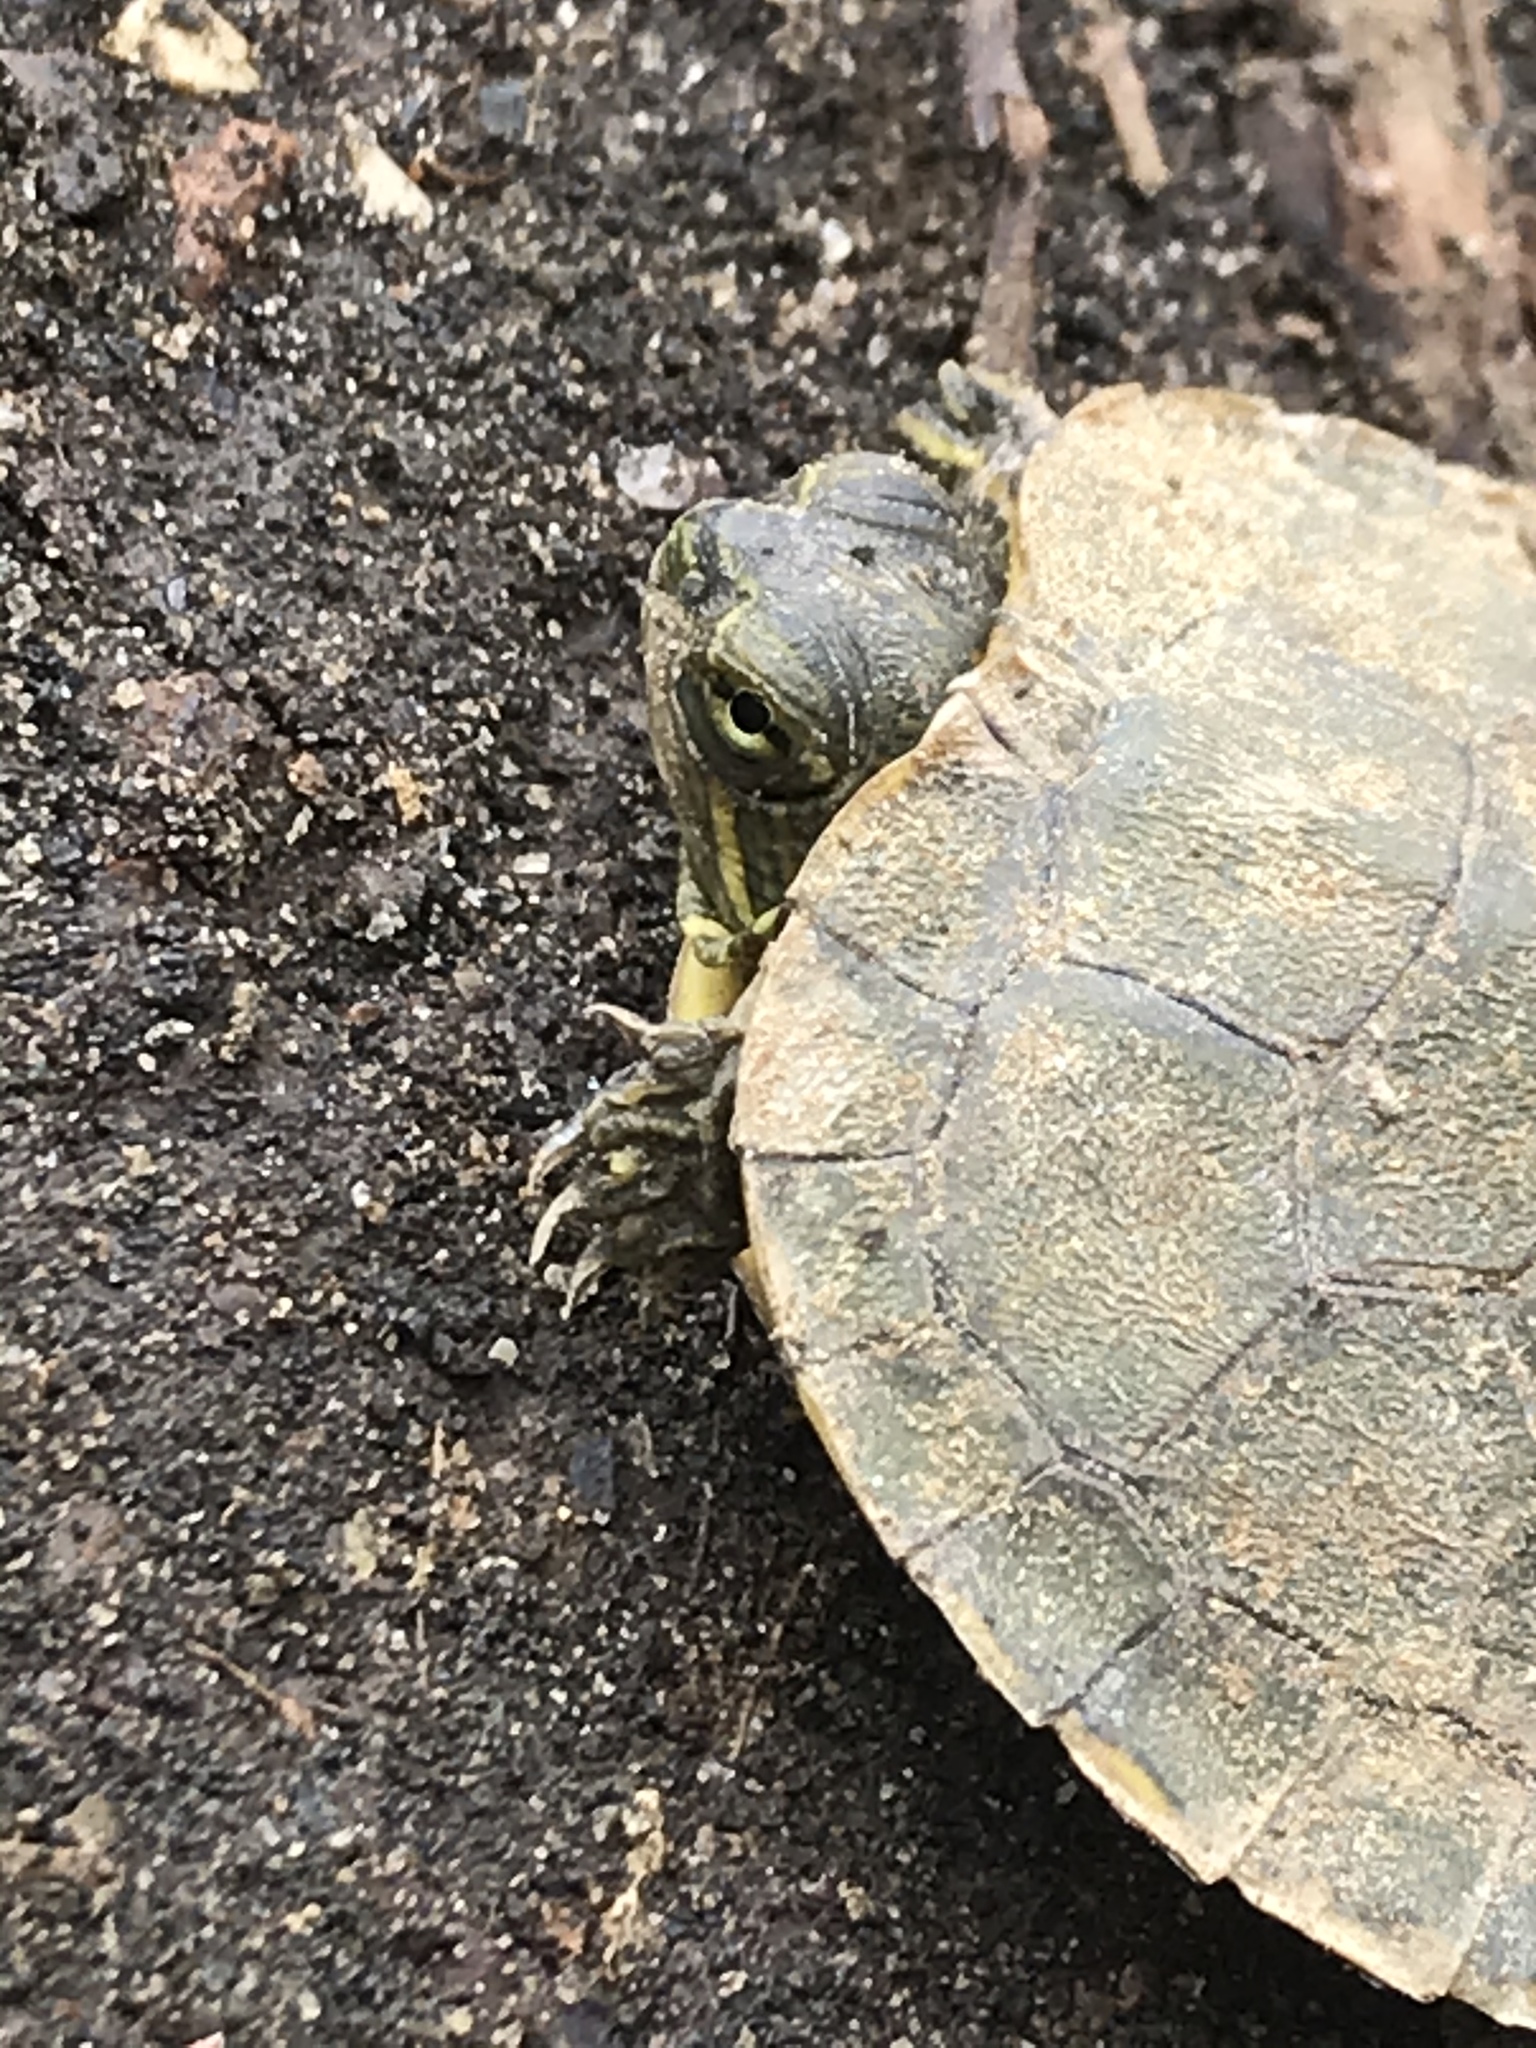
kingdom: Animalia
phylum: Chordata
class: Testudines
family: Emydidae
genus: Trachemys
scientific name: Trachemys scripta
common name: Slider
